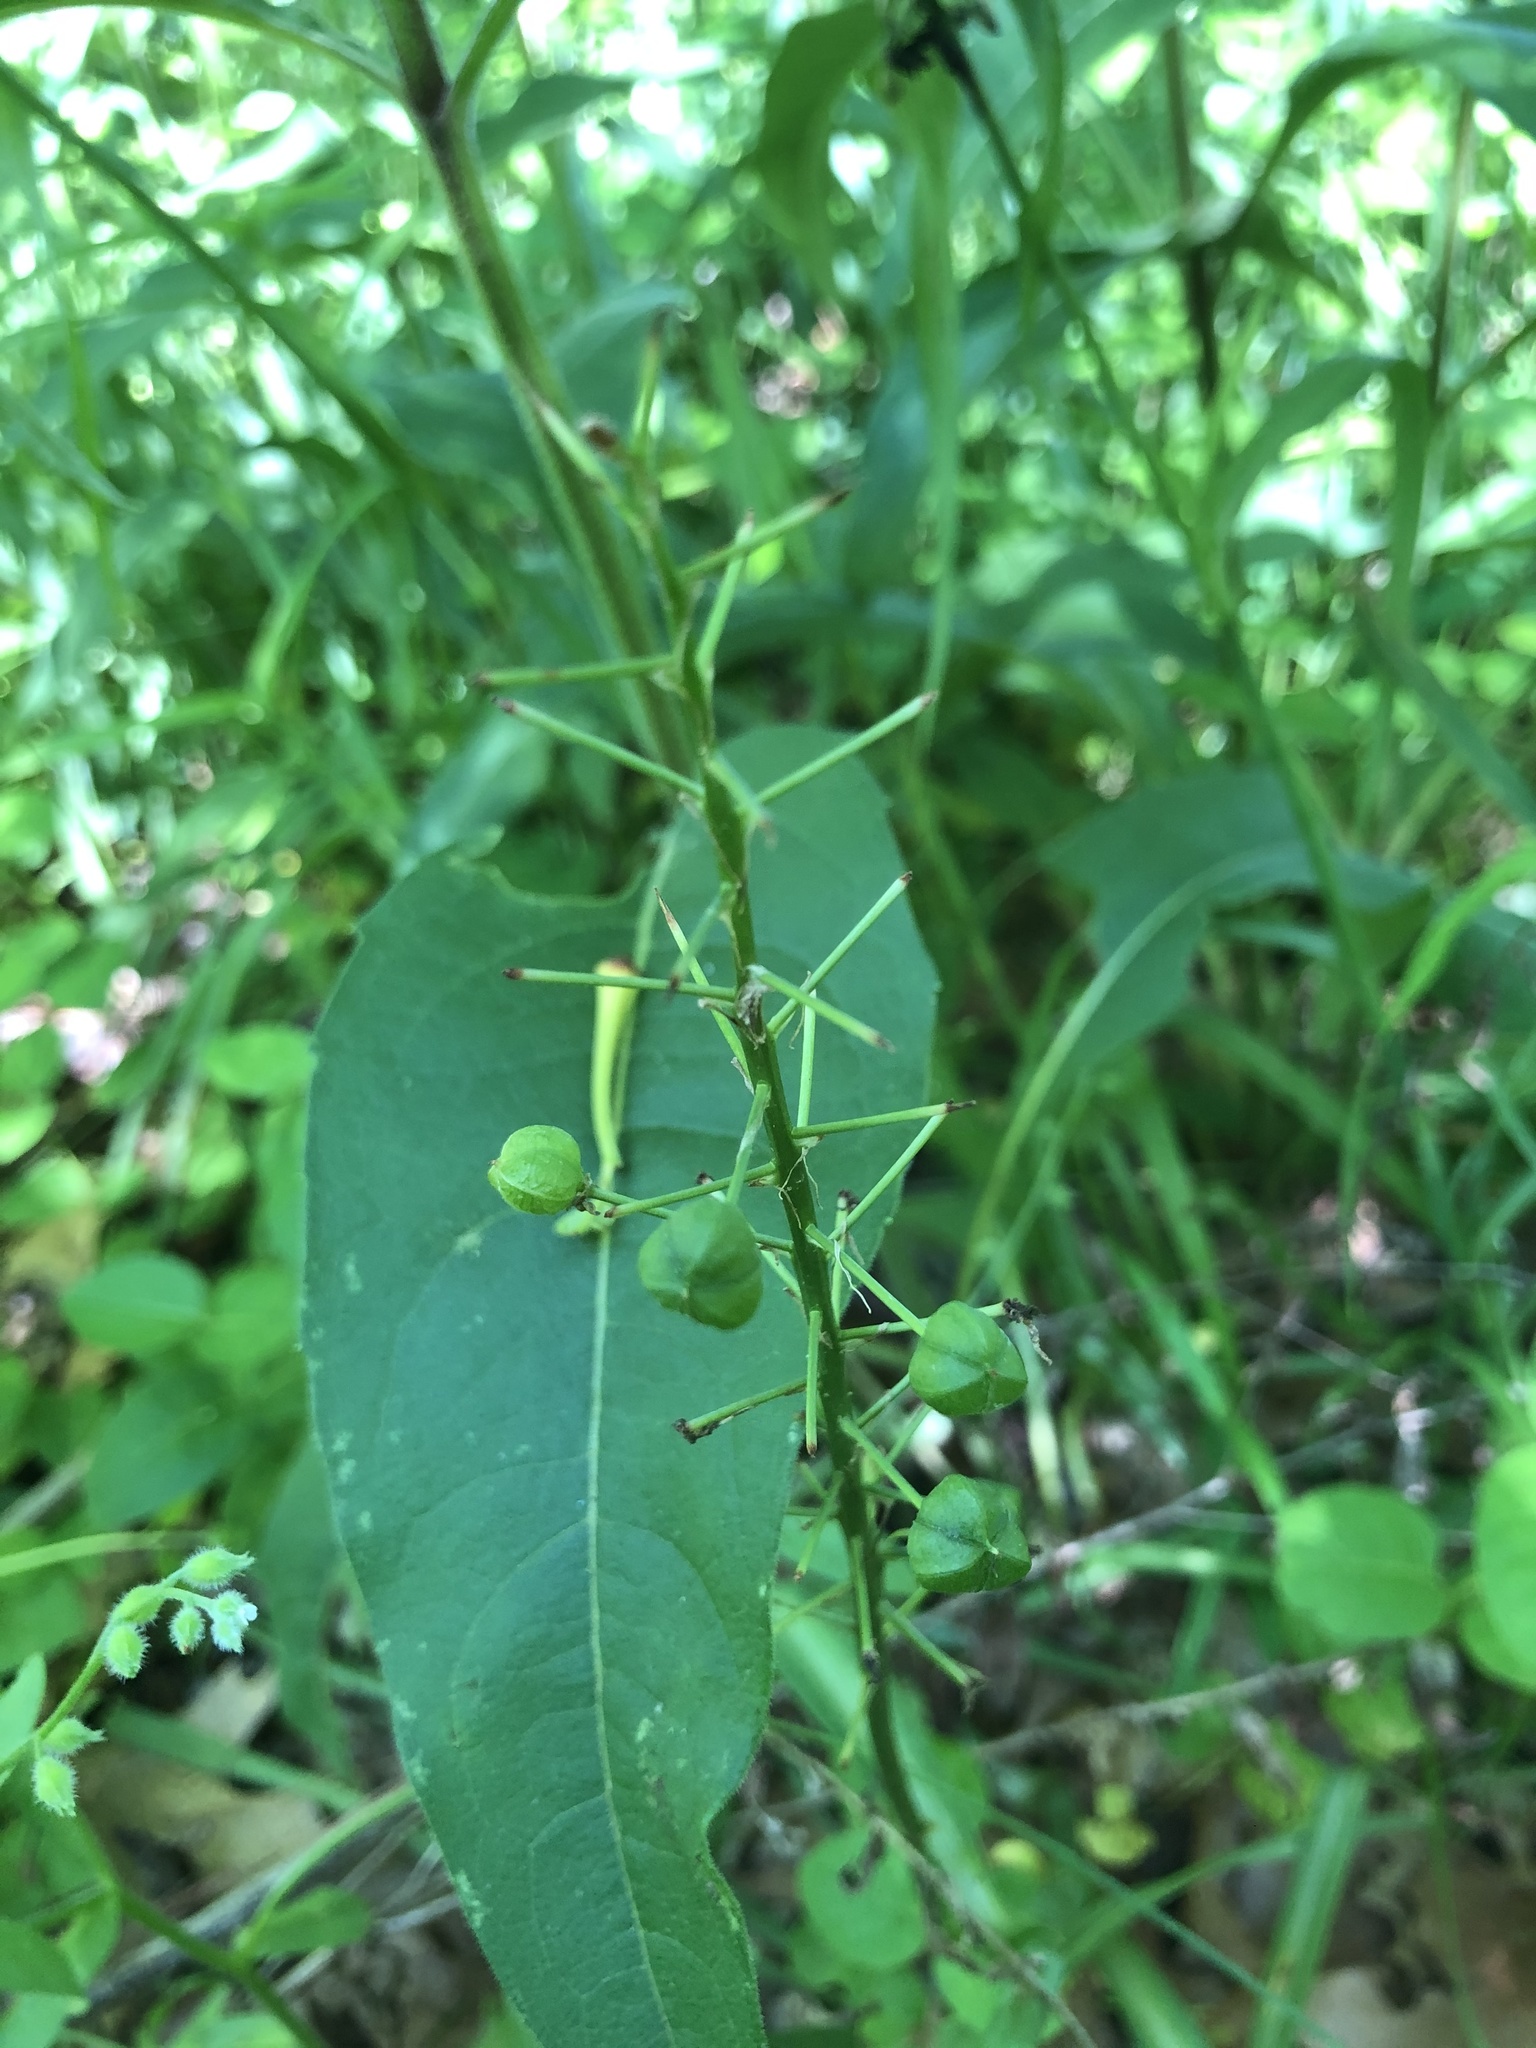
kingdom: Plantae
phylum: Tracheophyta
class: Liliopsida
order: Asparagales
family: Asparagaceae
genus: Camassia
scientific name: Camassia scilloides
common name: Wild hyacinth
